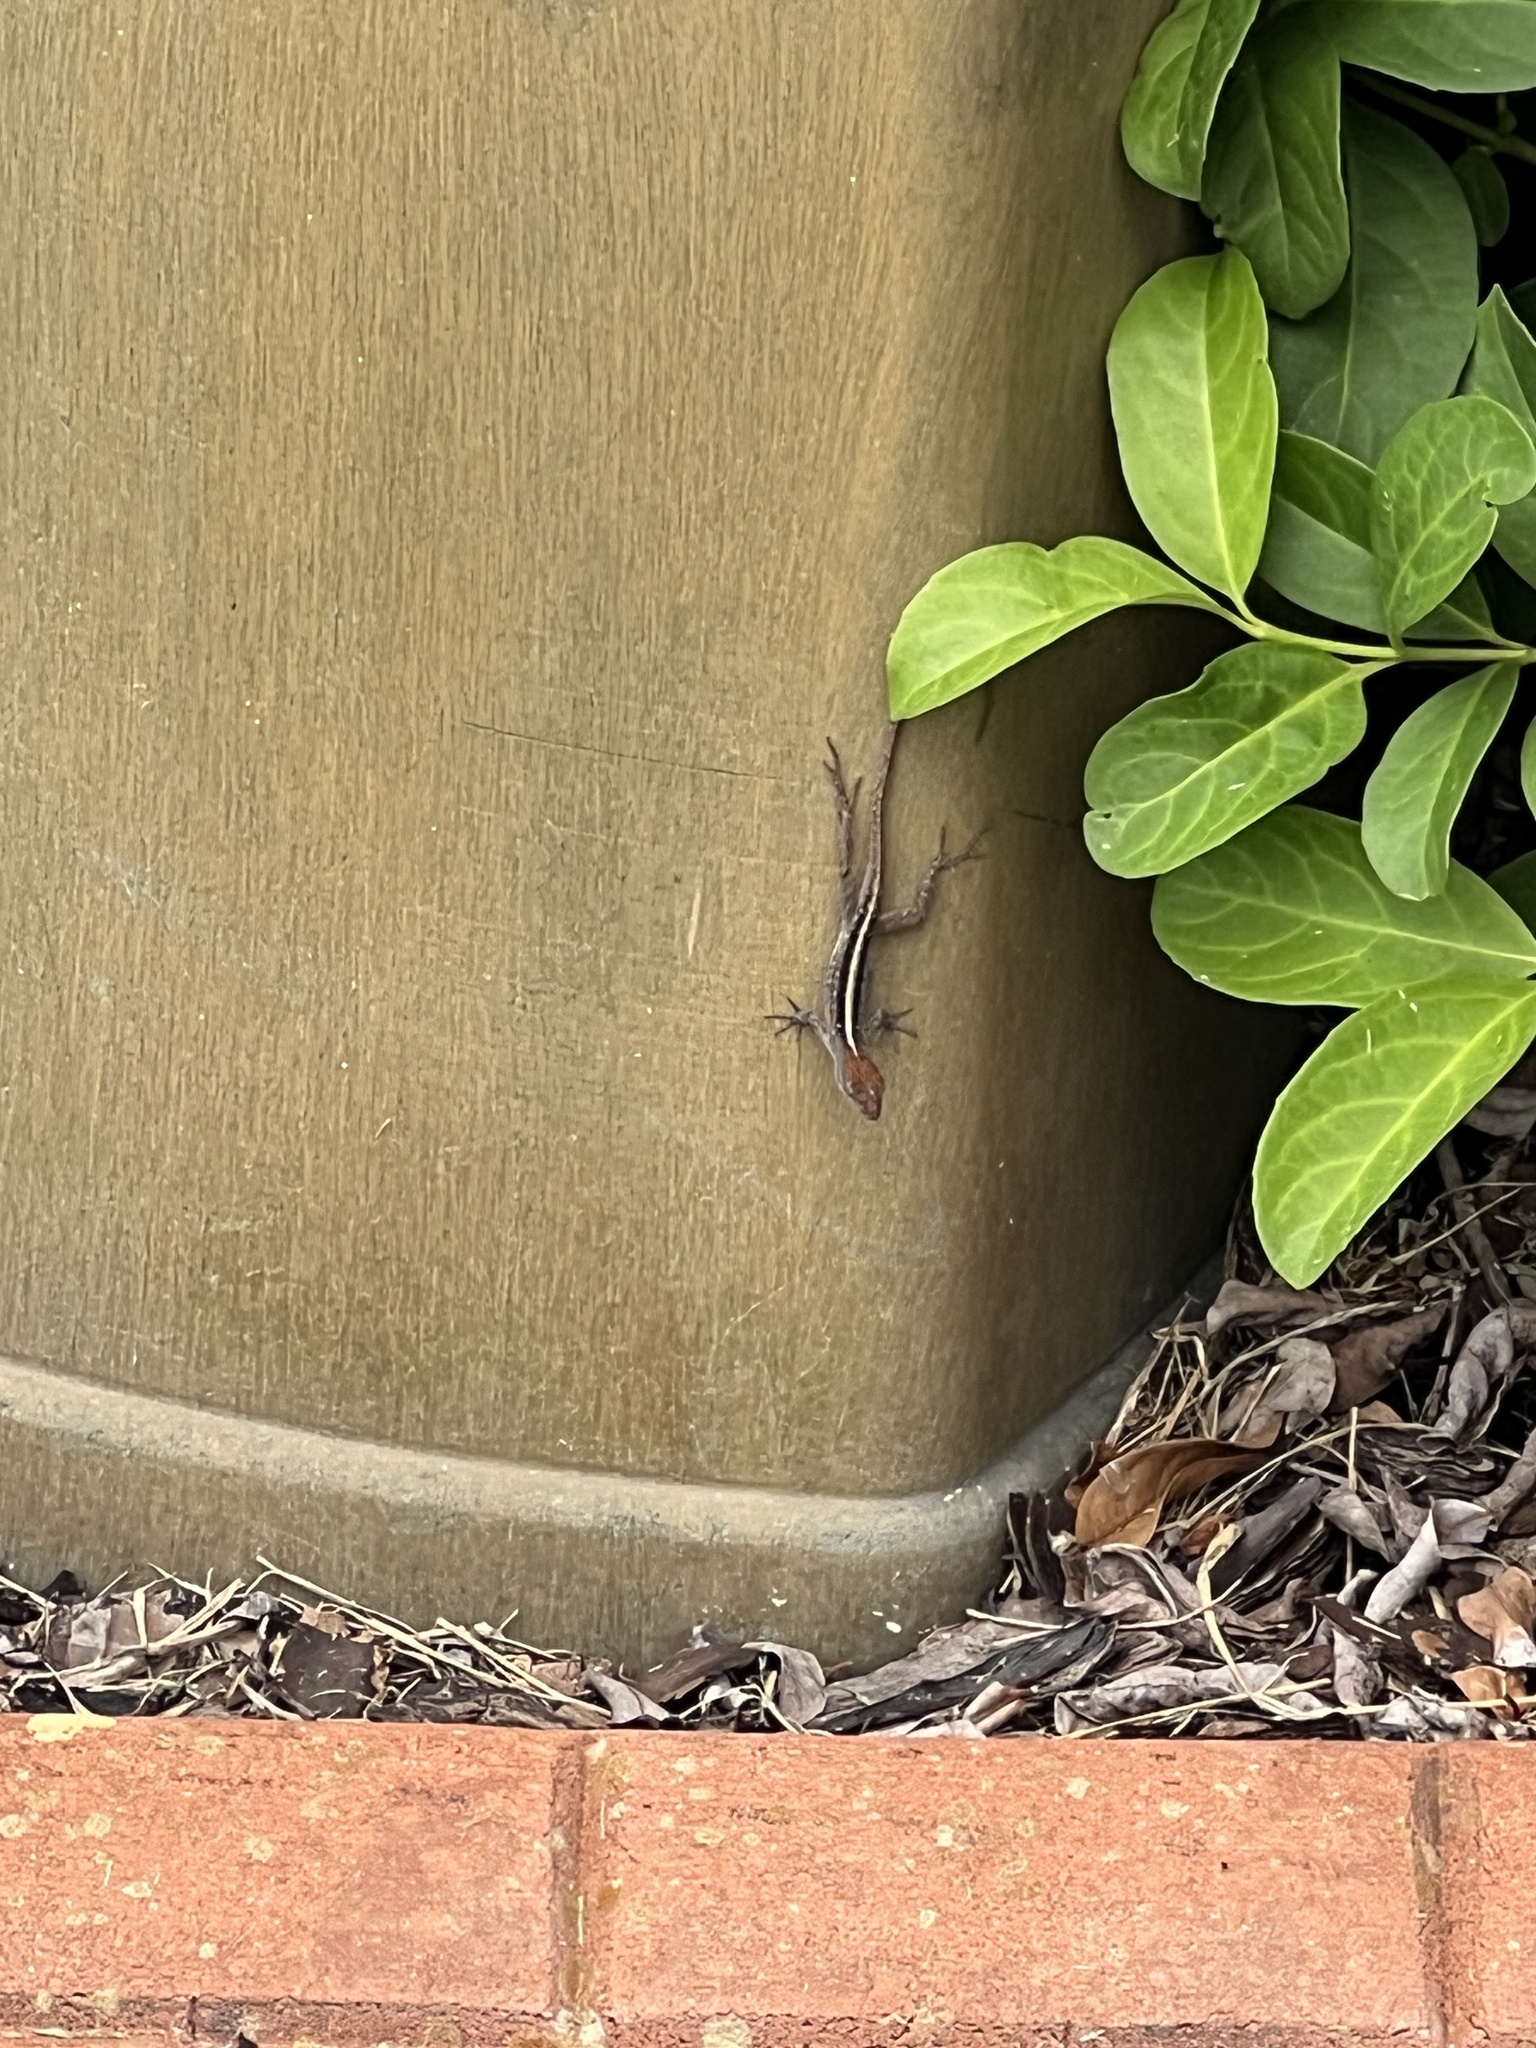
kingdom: Animalia
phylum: Chordata
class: Squamata
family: Dactyloidae
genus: Anolis
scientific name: Anolis sagrei
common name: Brown anole
